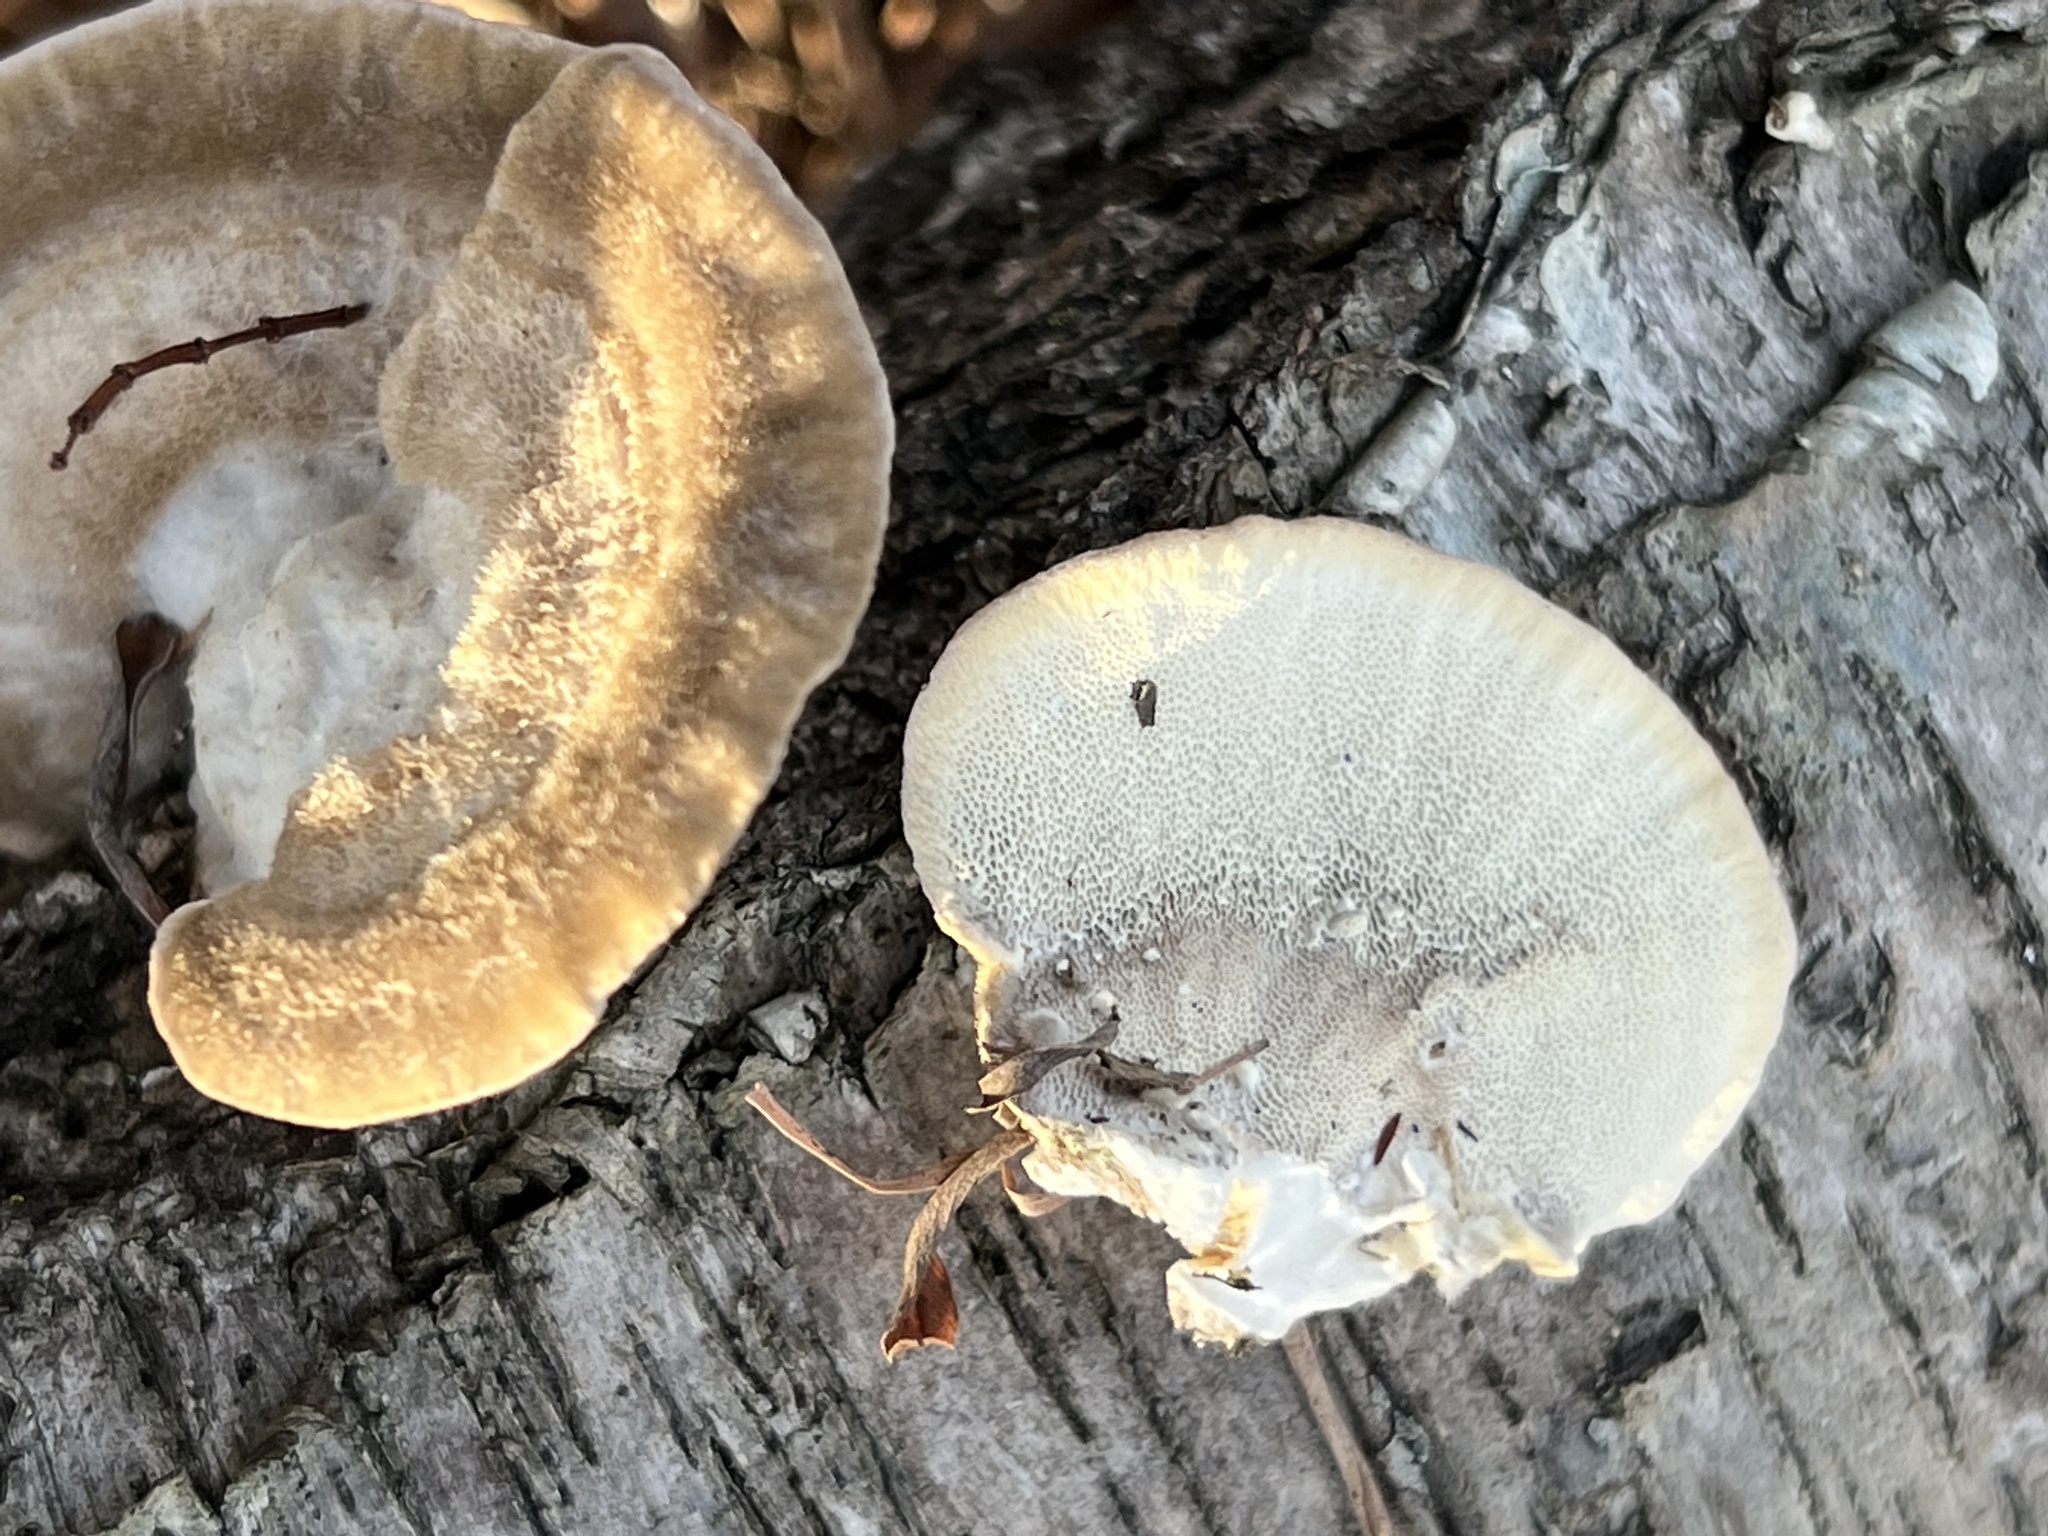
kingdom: Fungi
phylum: Basidiomycota
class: Agaricomycetes
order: Polyporales
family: Polyporaceae
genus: Trametes
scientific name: Trametes lactinea
